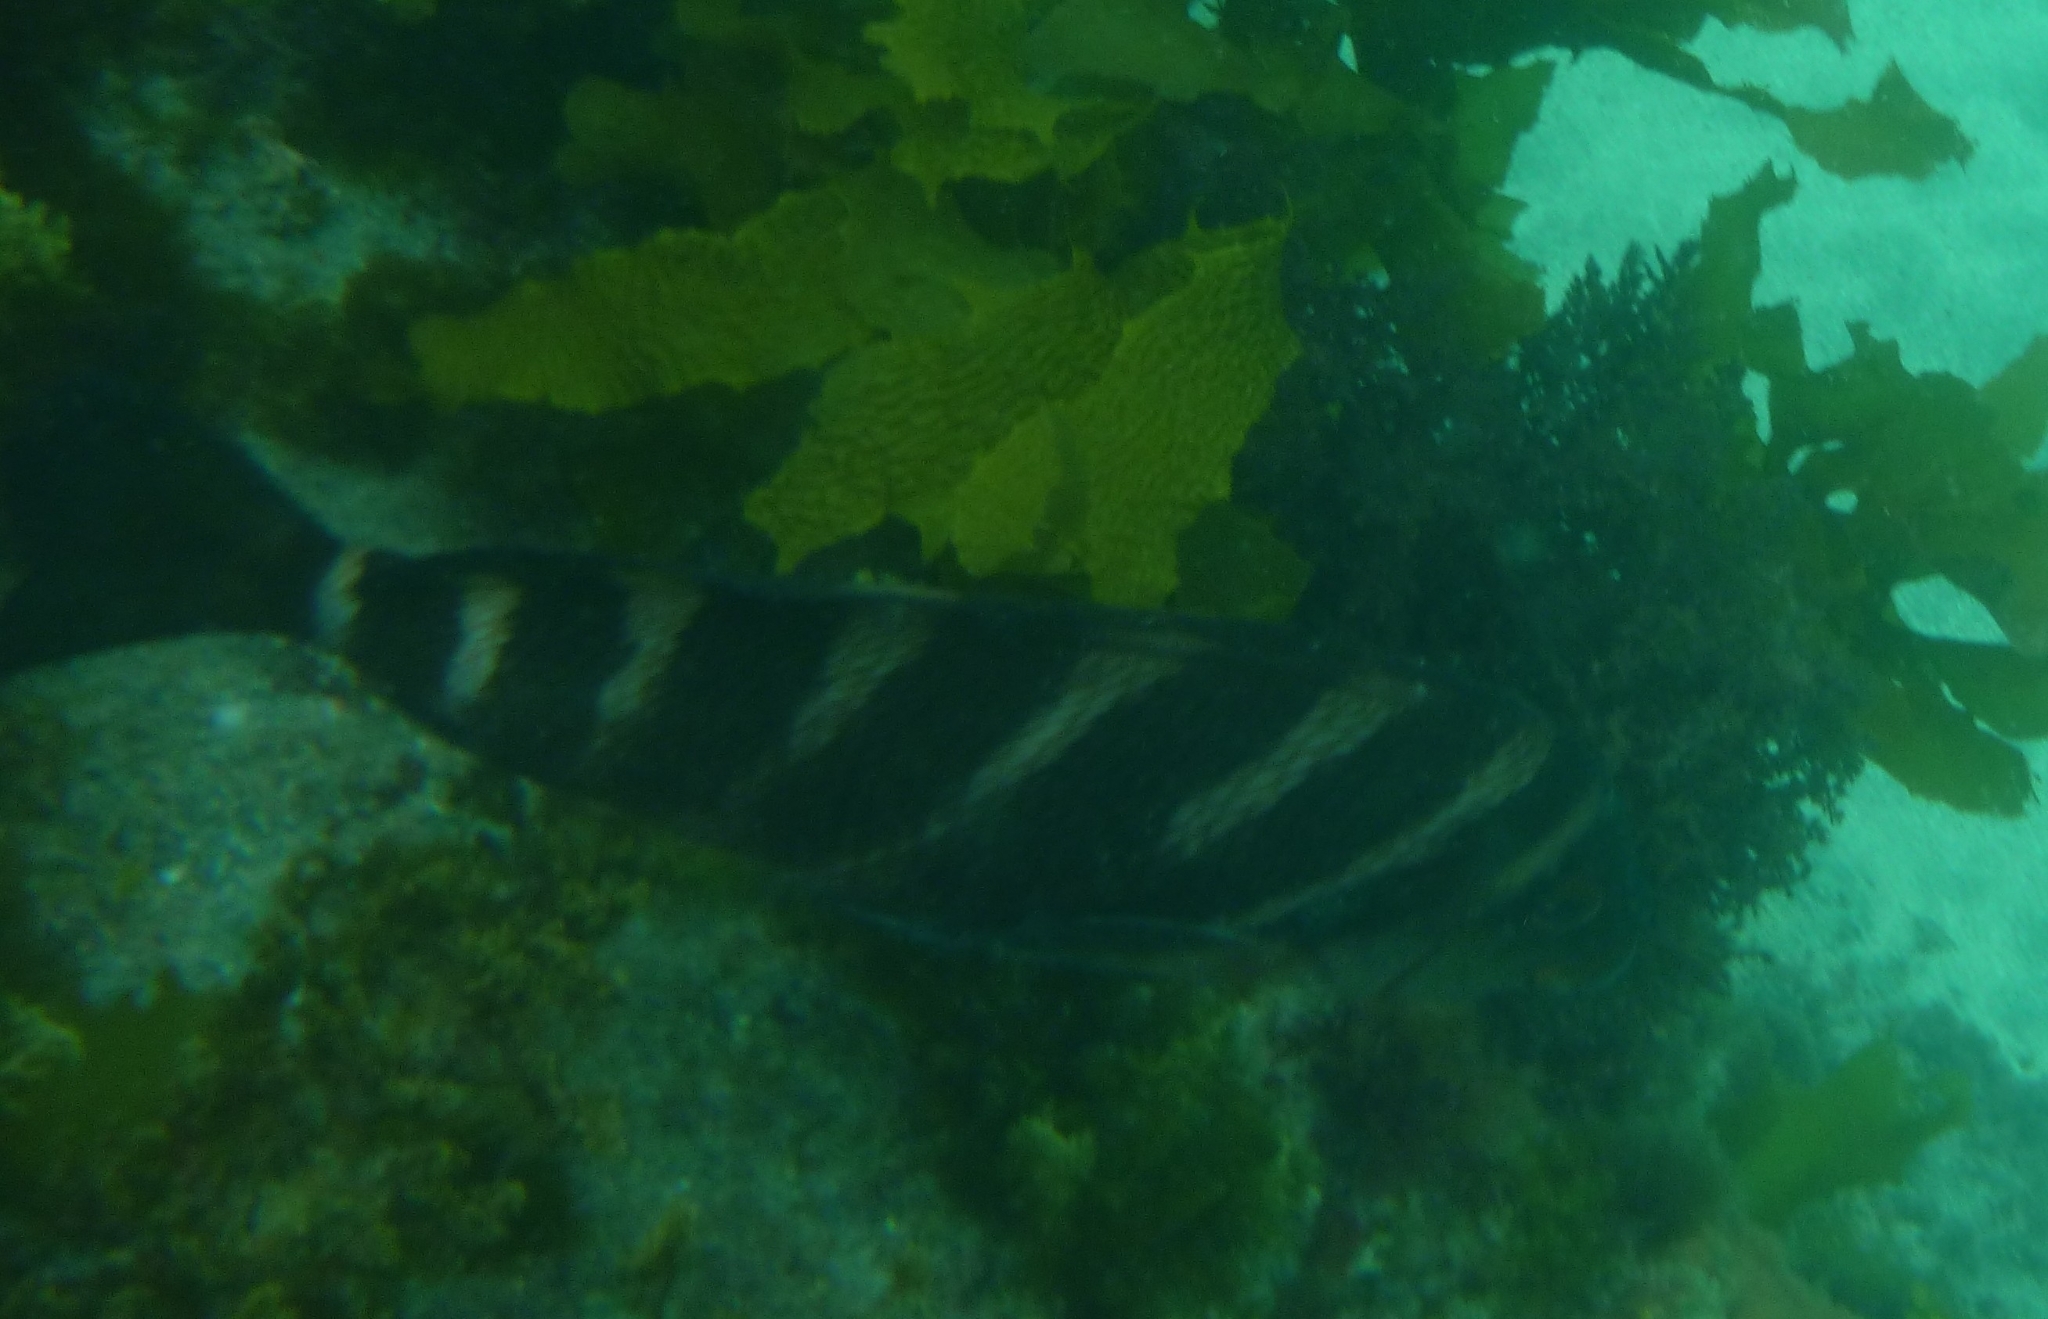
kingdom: Animalia
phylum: Chordata
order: Perciformes
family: Cheilodactylidae
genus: Cheilodactylus
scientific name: Cheilodactylus spectabilis
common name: Red moki
